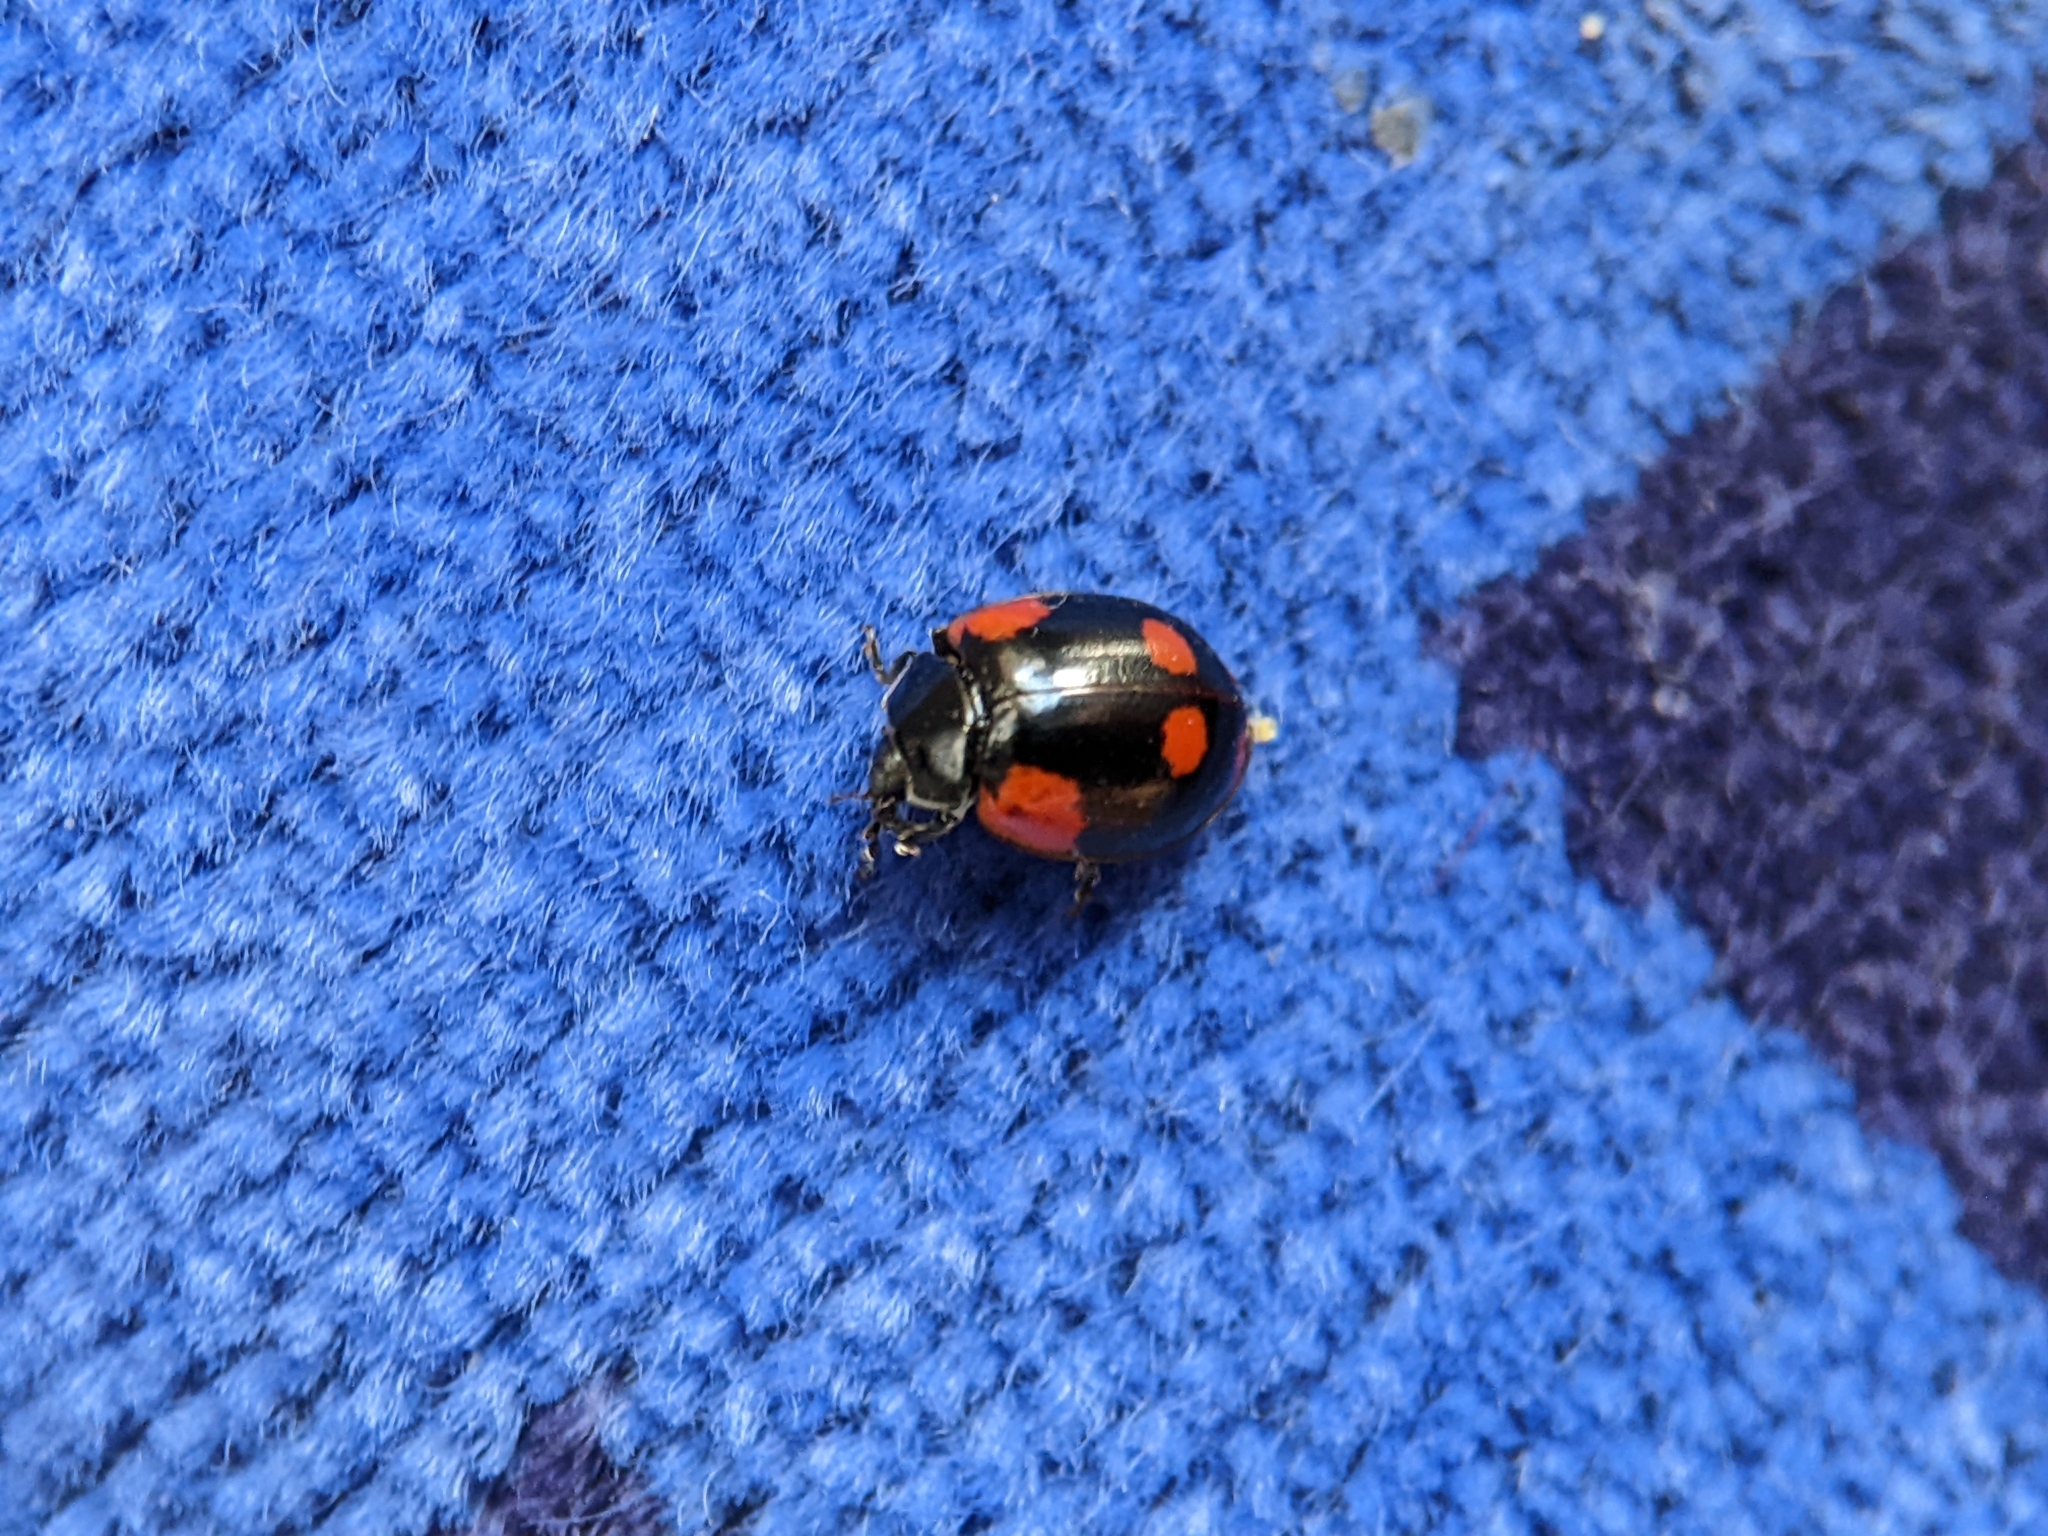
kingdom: Animalia
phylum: Arthropoda
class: Insecta
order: Coleoptera
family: Coccinellidae
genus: Adalia
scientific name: Adalia bipunctata
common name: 2-spot ladybird
